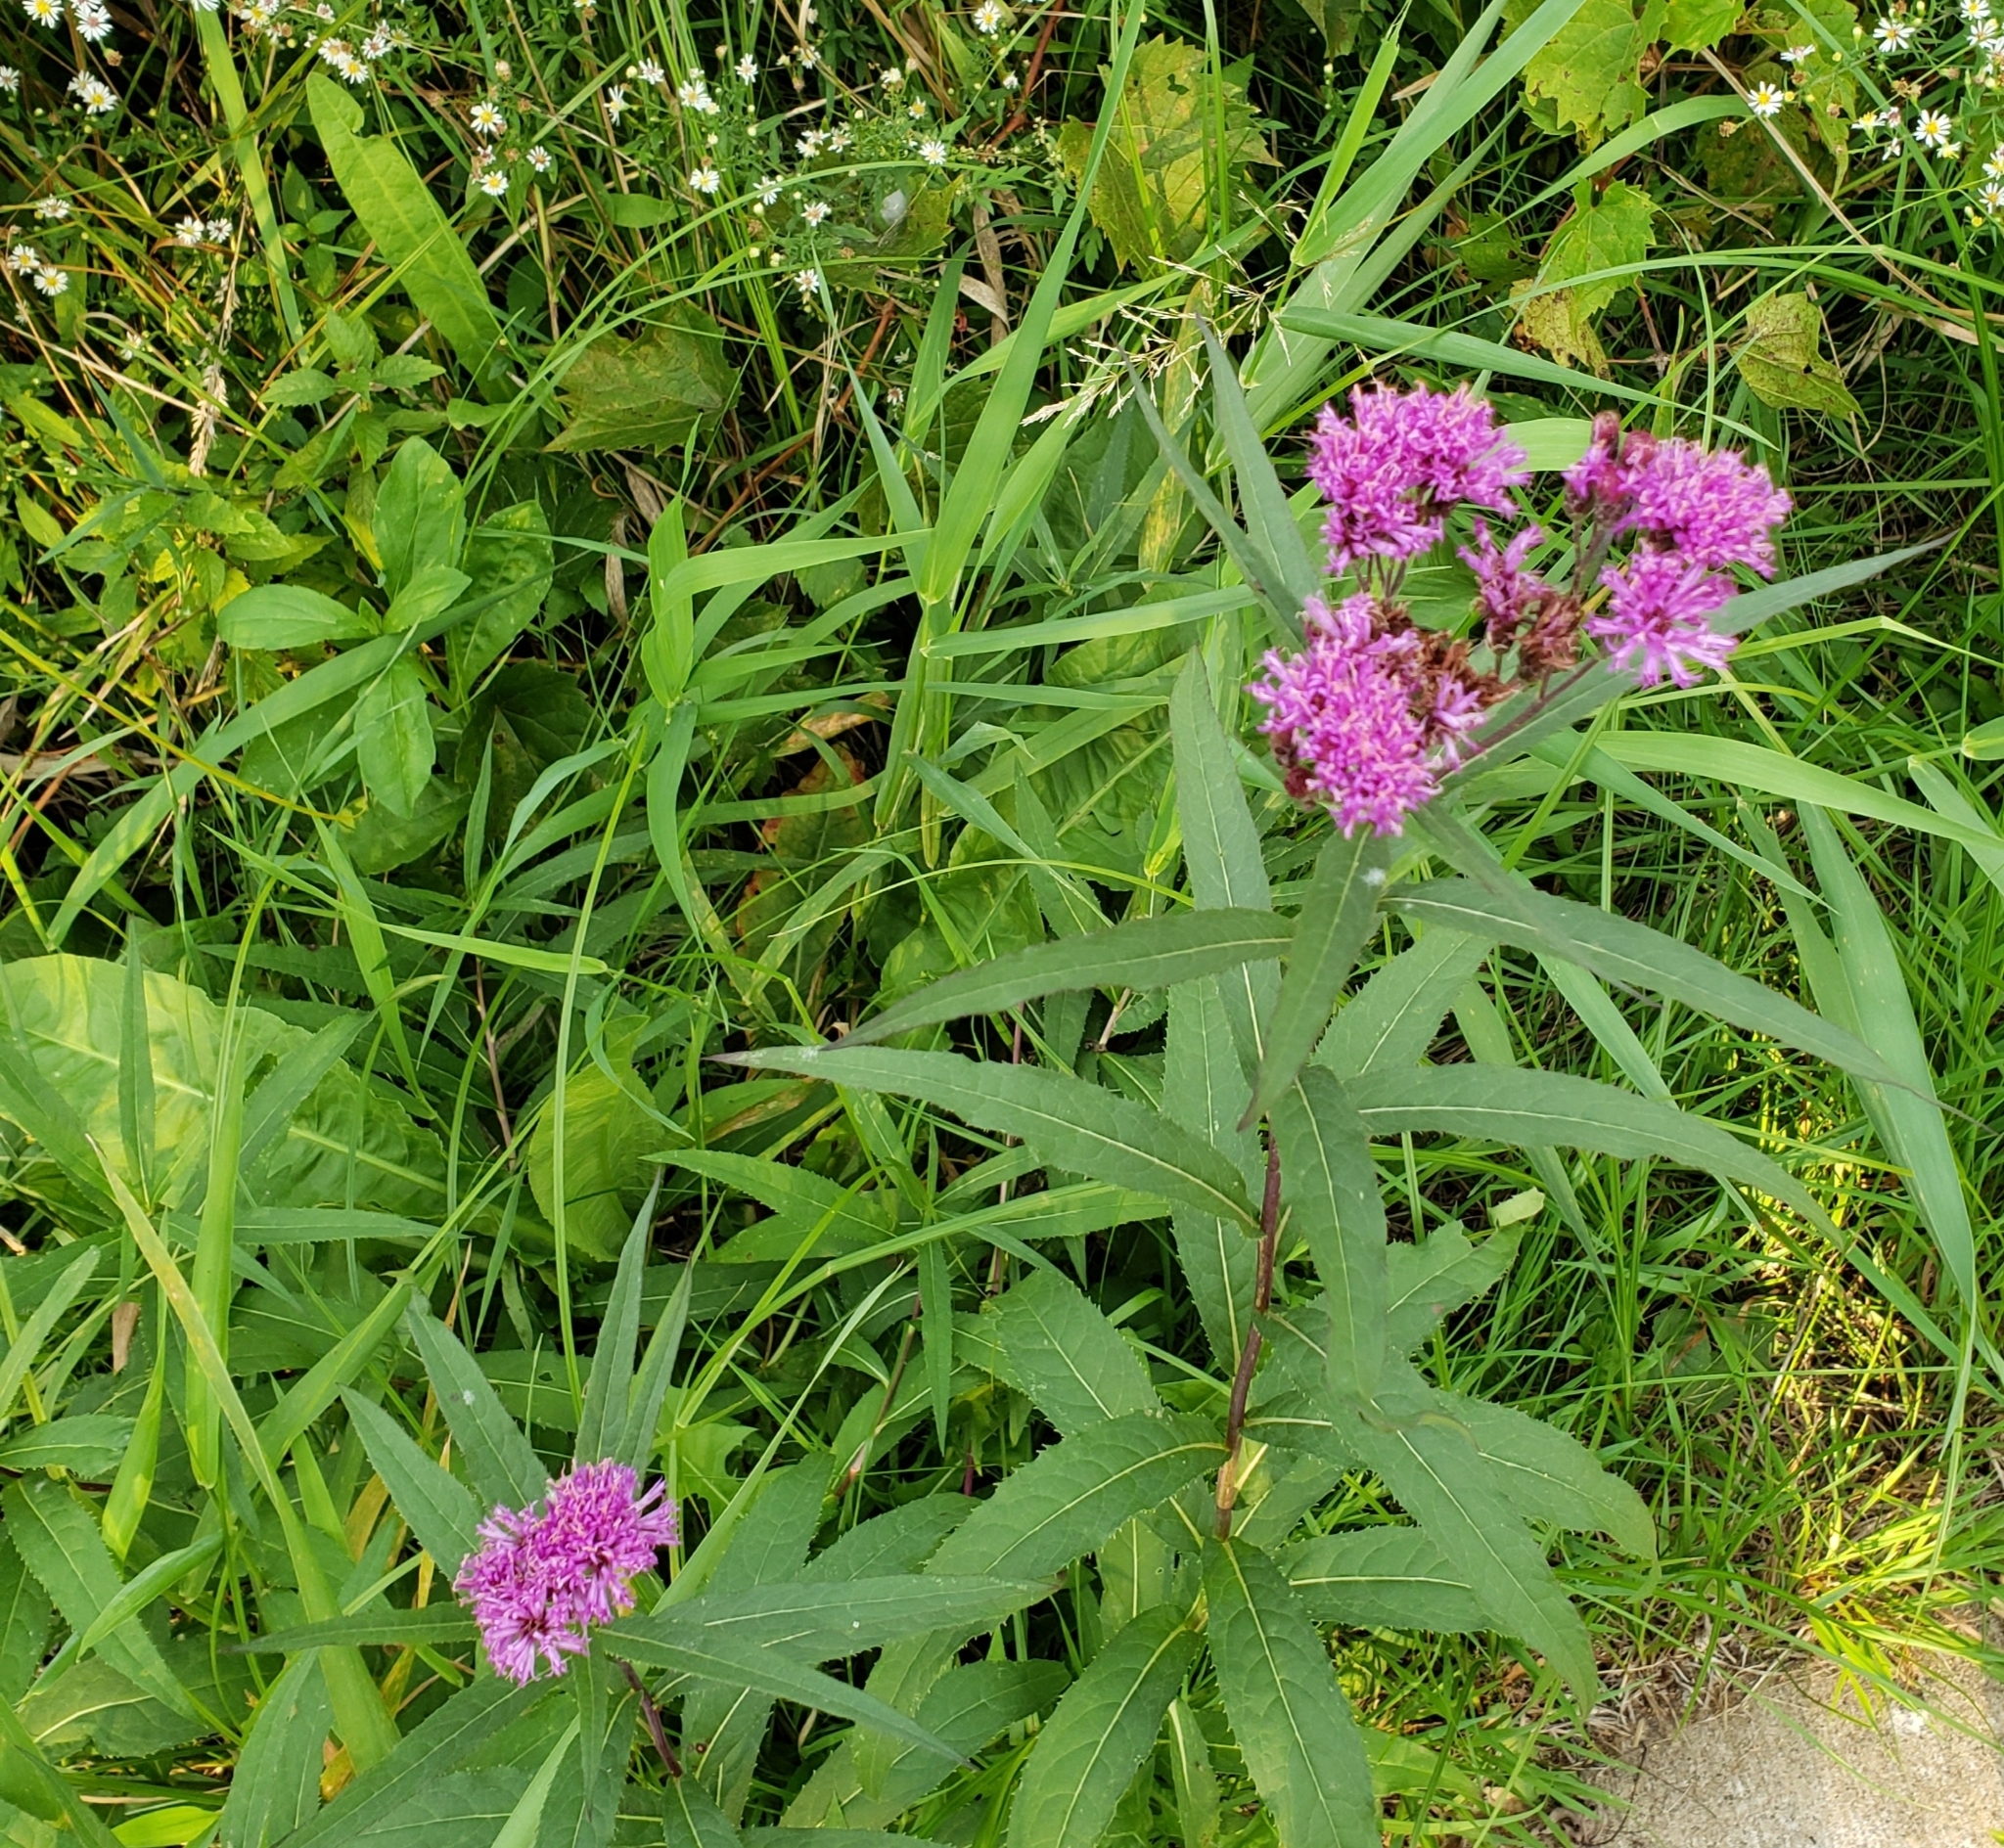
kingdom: Plantae
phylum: Tracheophyta
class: Magnoliopsida
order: Asterales
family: Asteraceae
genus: Vernonia
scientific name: Vernonia fasciculata
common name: Fascicled ironweed
